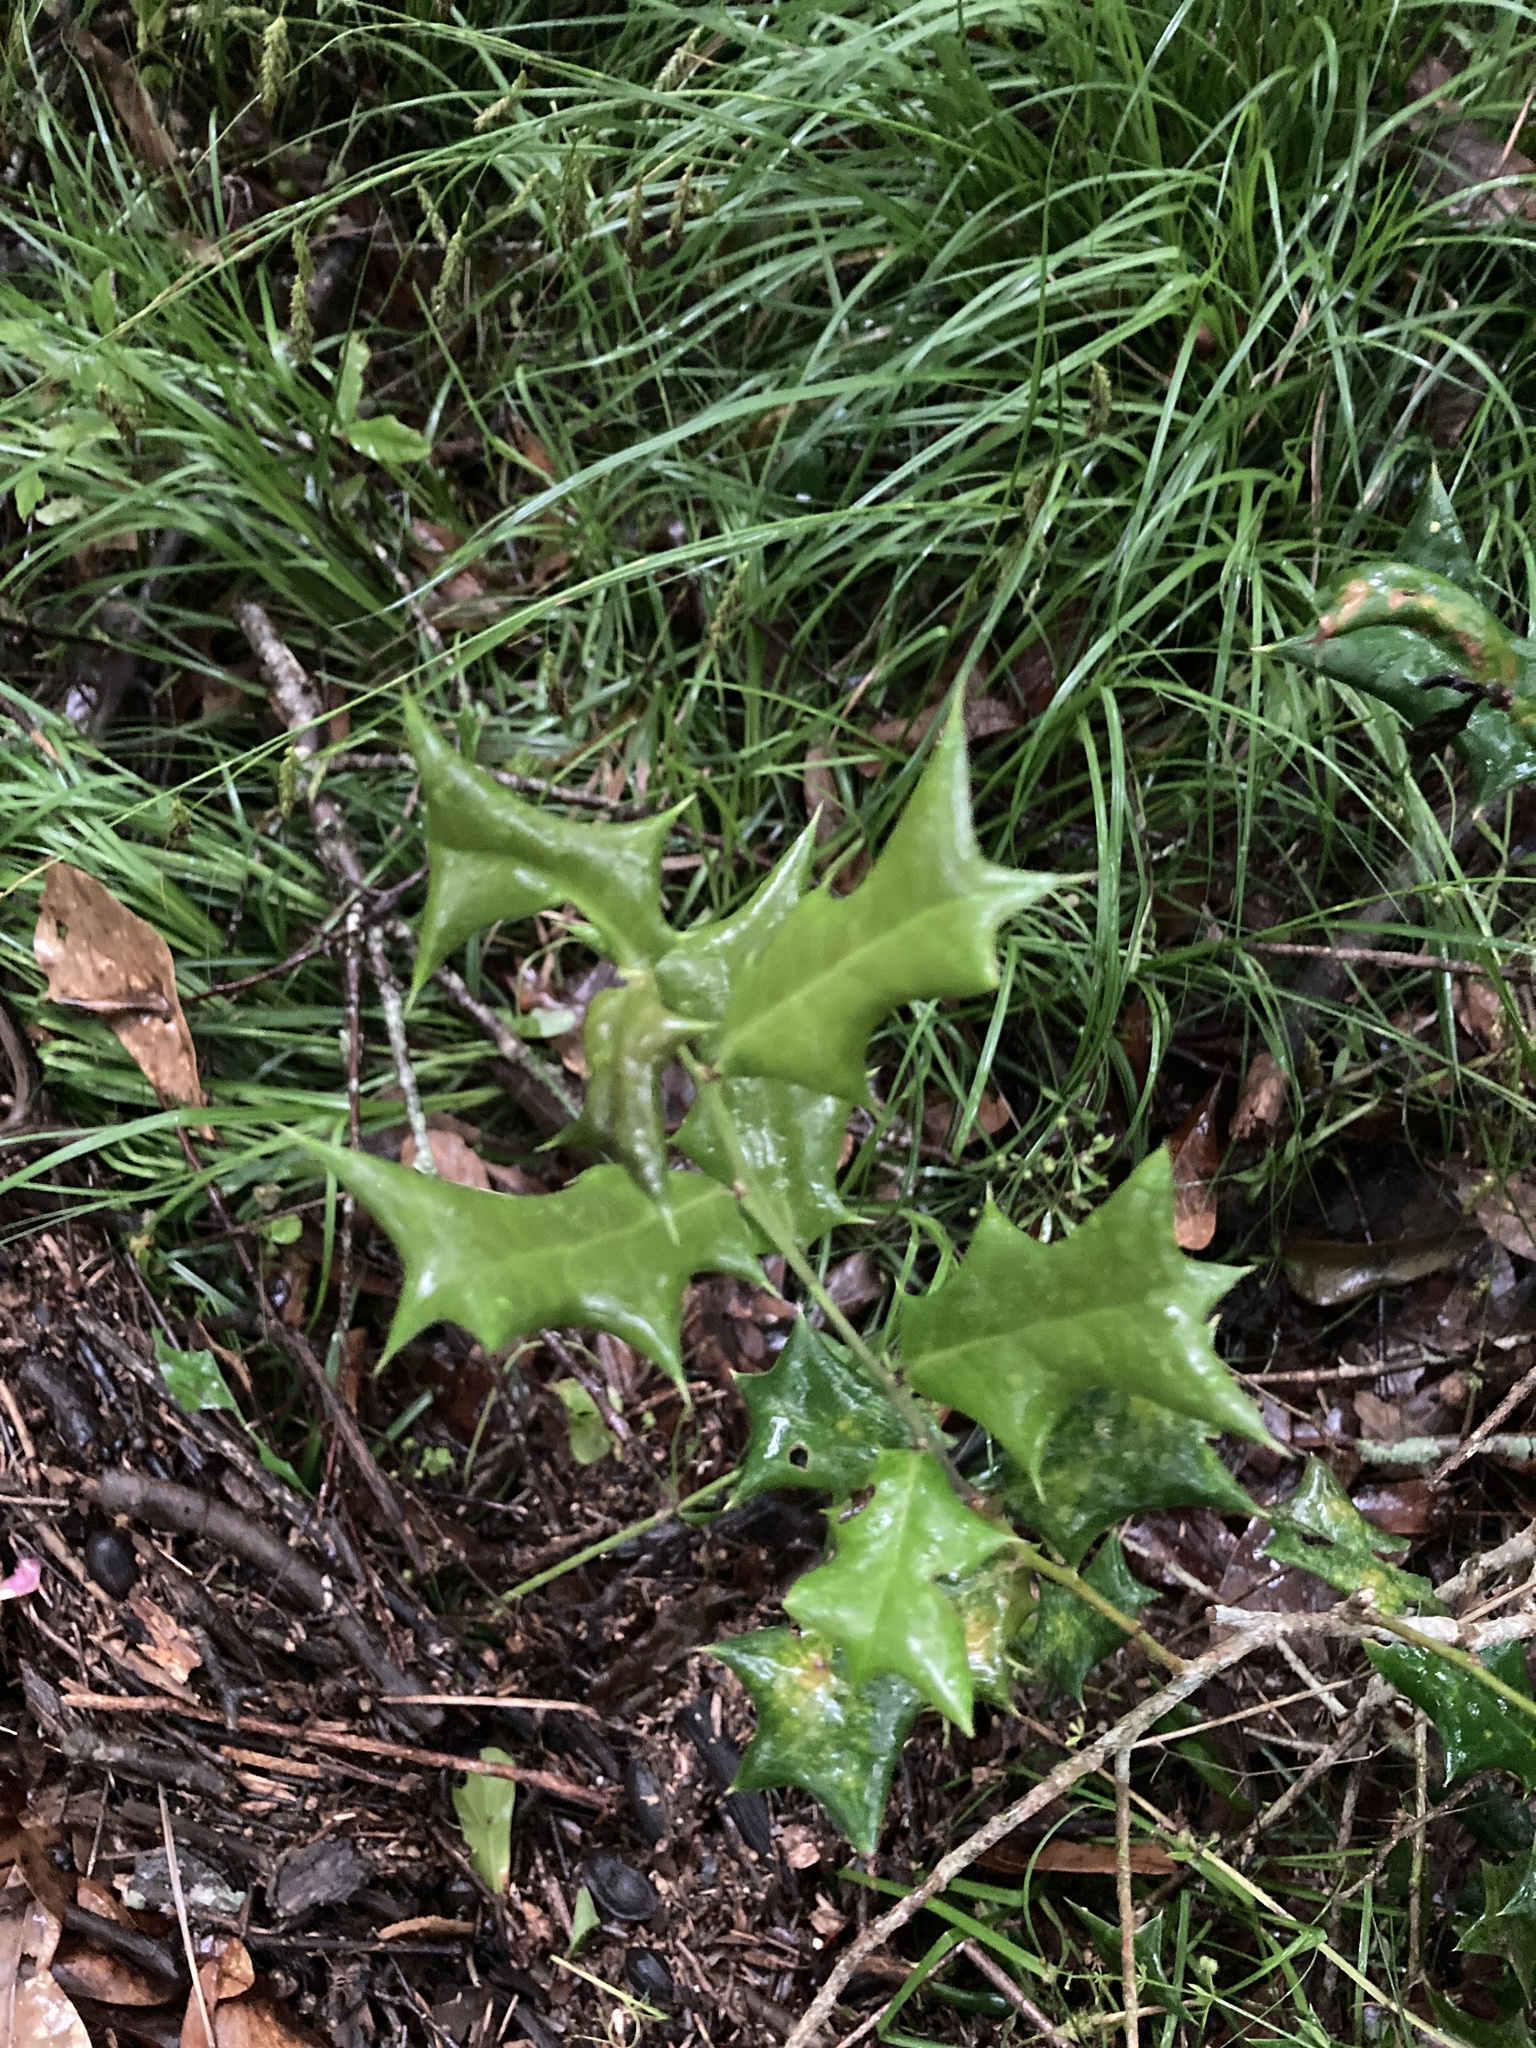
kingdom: Plantae
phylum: Tracheophyta
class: Magnoliopsida
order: Aquifoliales
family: Aquifoliaceae
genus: Ilex
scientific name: Ilex cornuta
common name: Chinese holly
